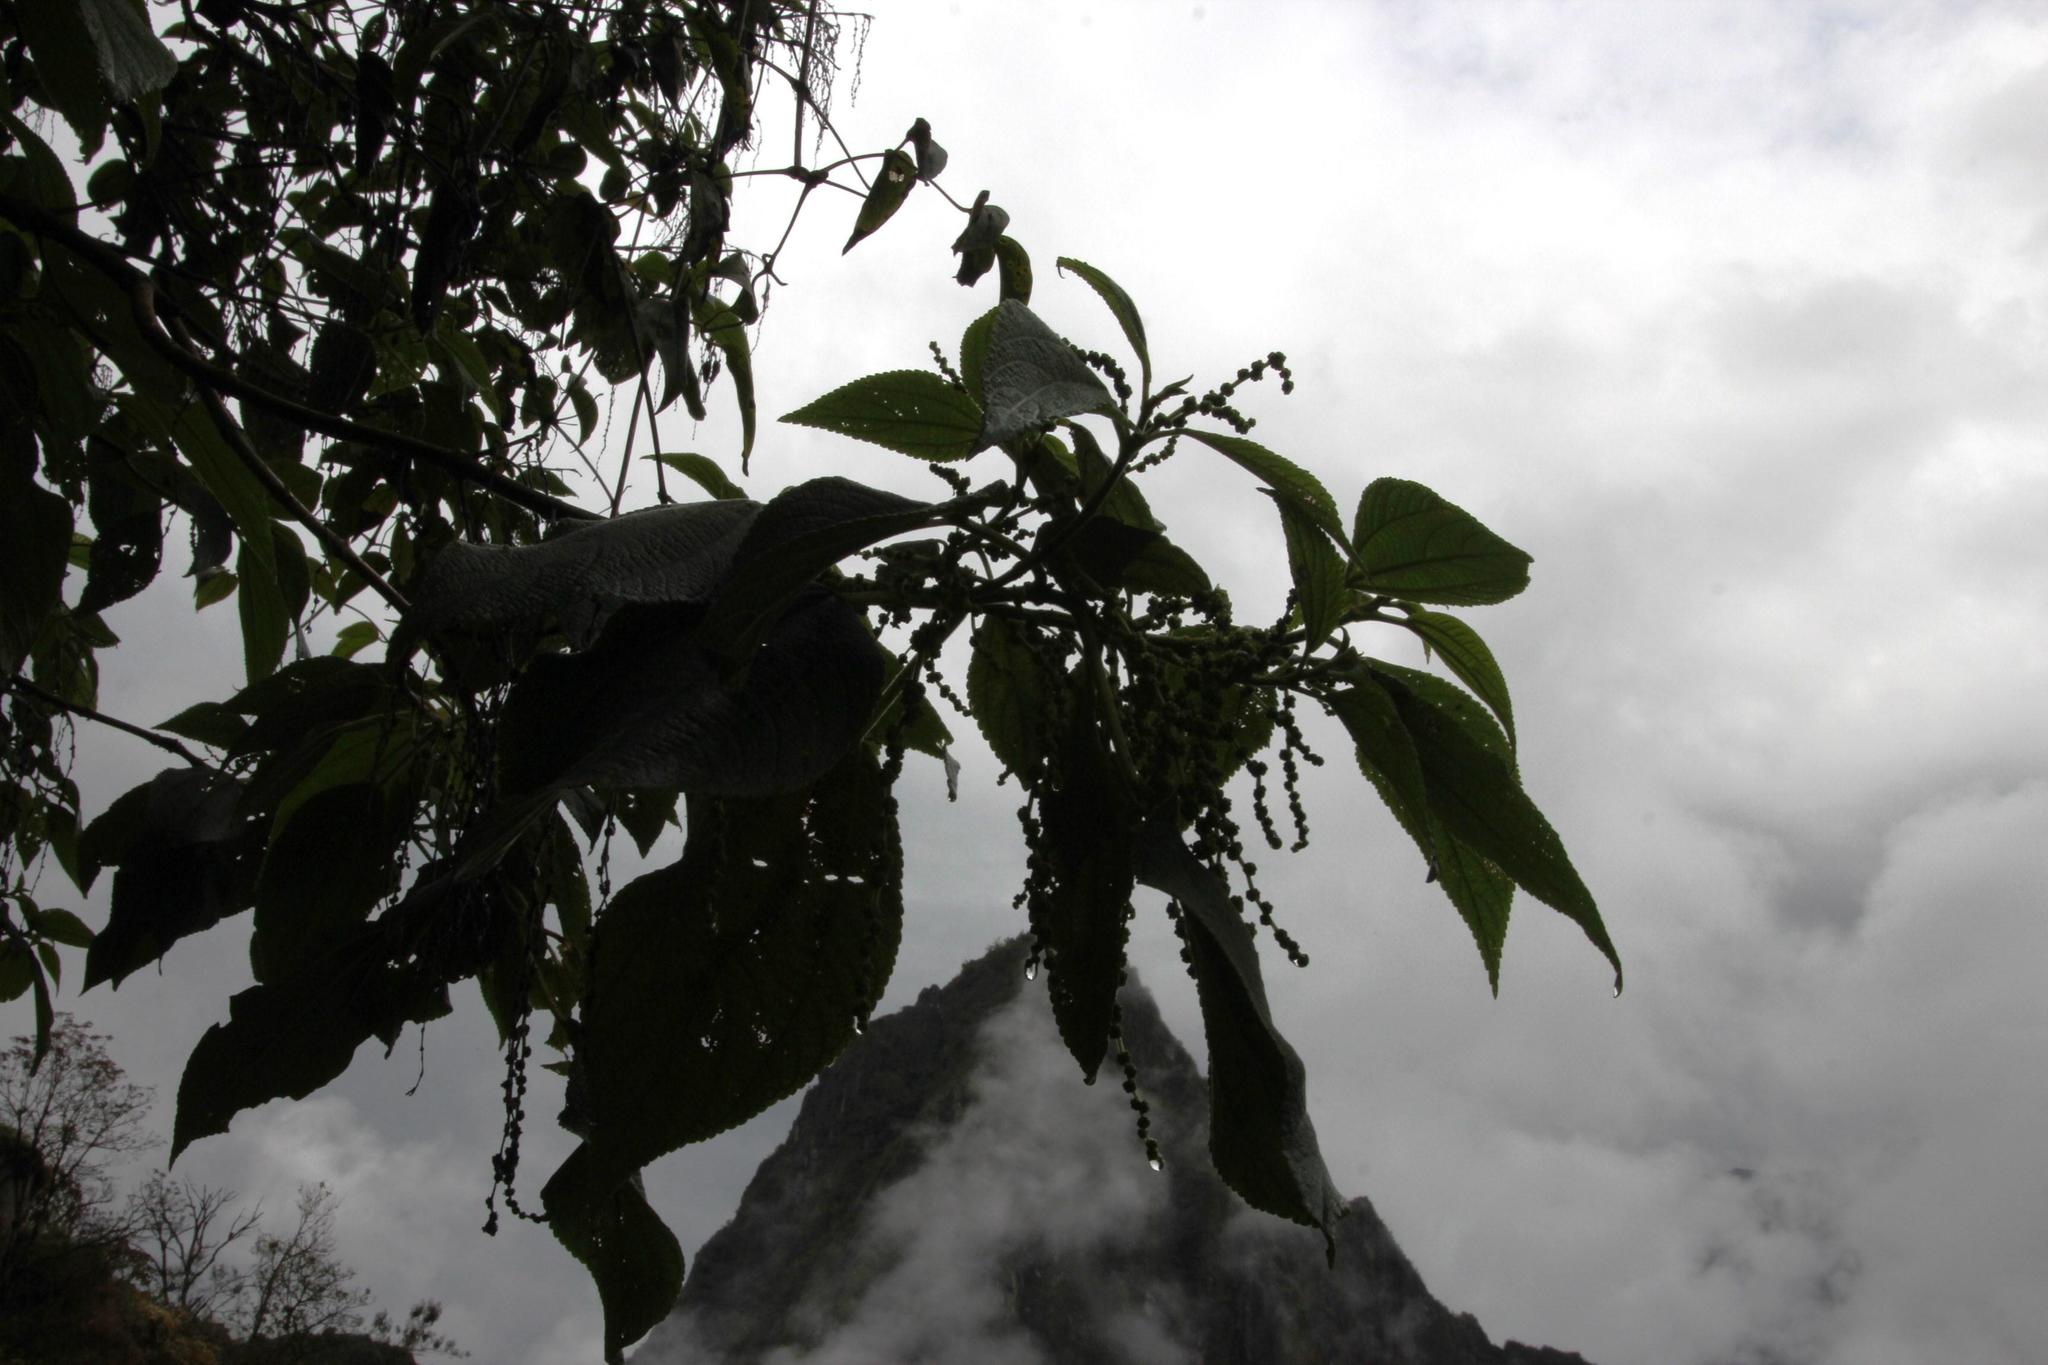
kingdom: Plantae
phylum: Tracheophyta
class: Magnoliopsida
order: Rosales
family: Urticaceae
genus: Boehmeria
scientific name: Boehmeria caudata
